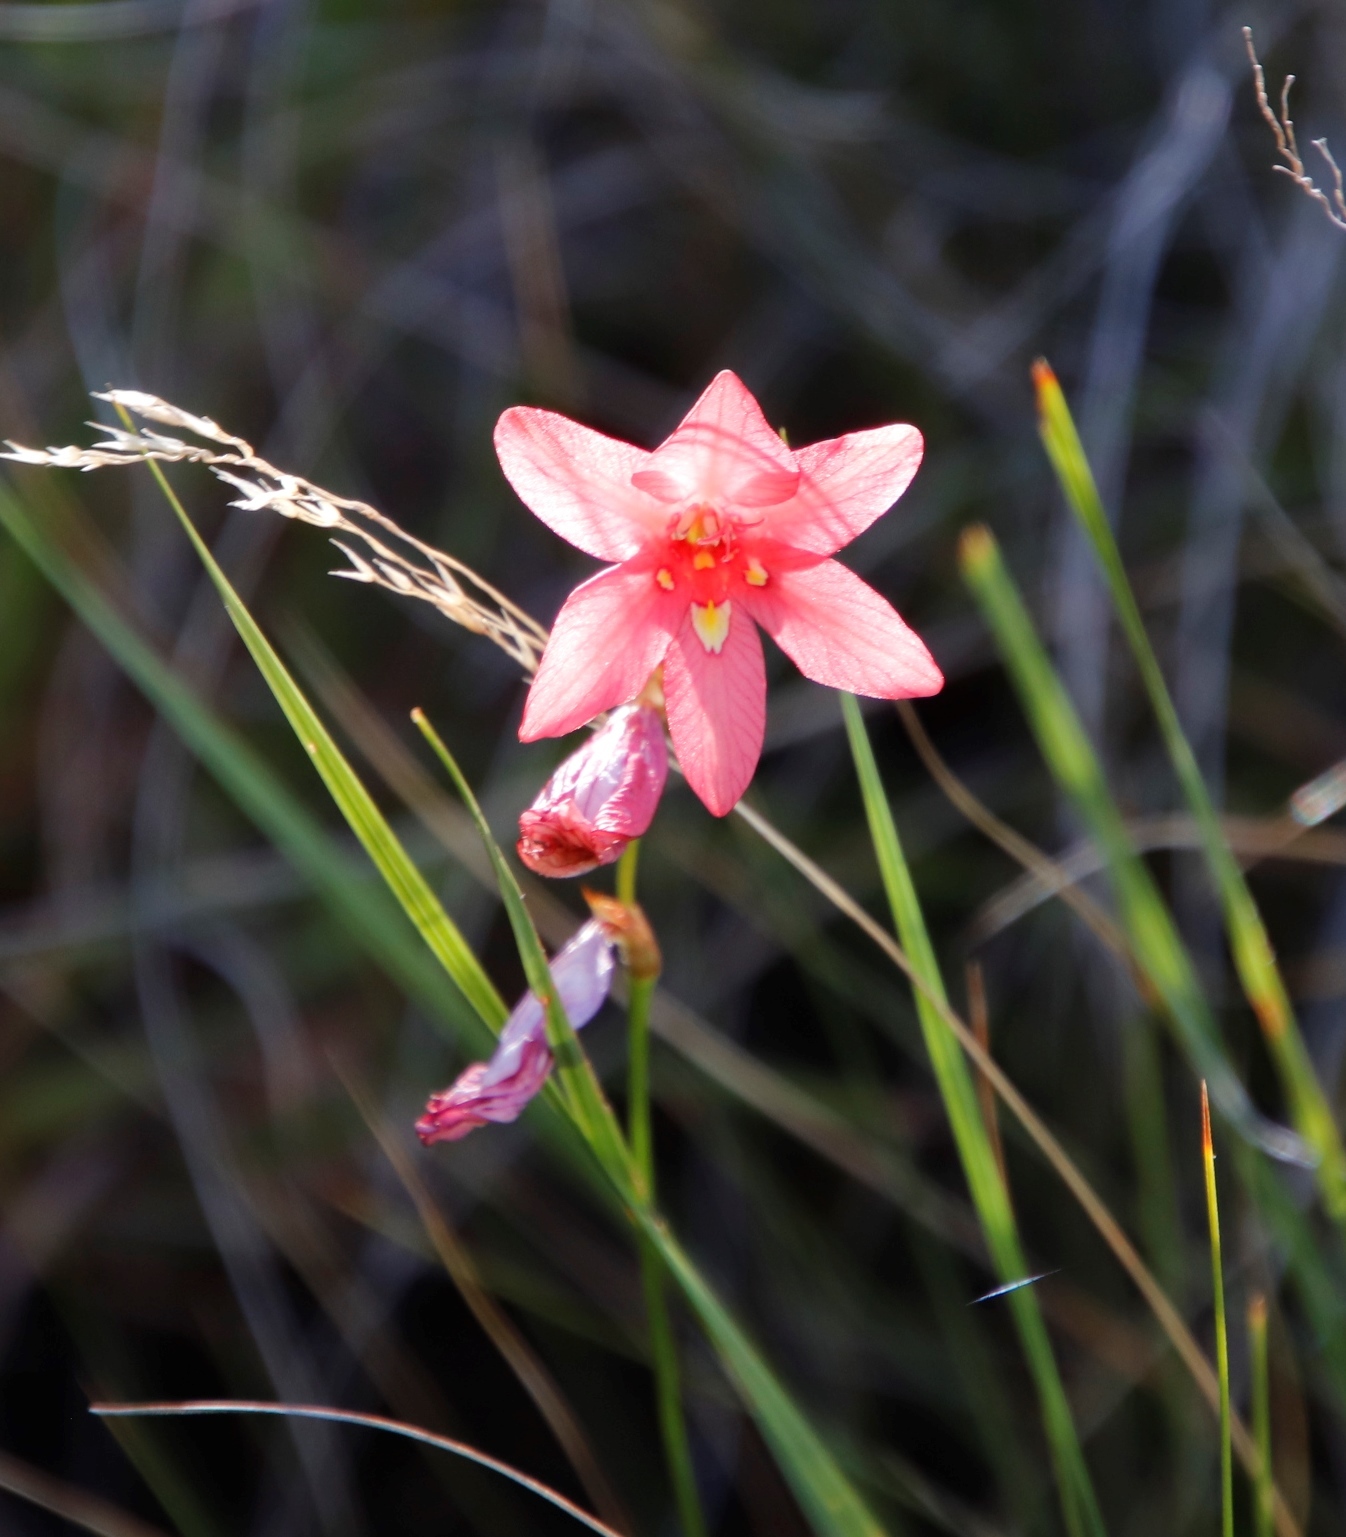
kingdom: Plantae
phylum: Tracheophyta
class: Liliopsida
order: Asparagales
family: Iridaceae
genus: Tritonia
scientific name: Tritonia drakensbergensis
